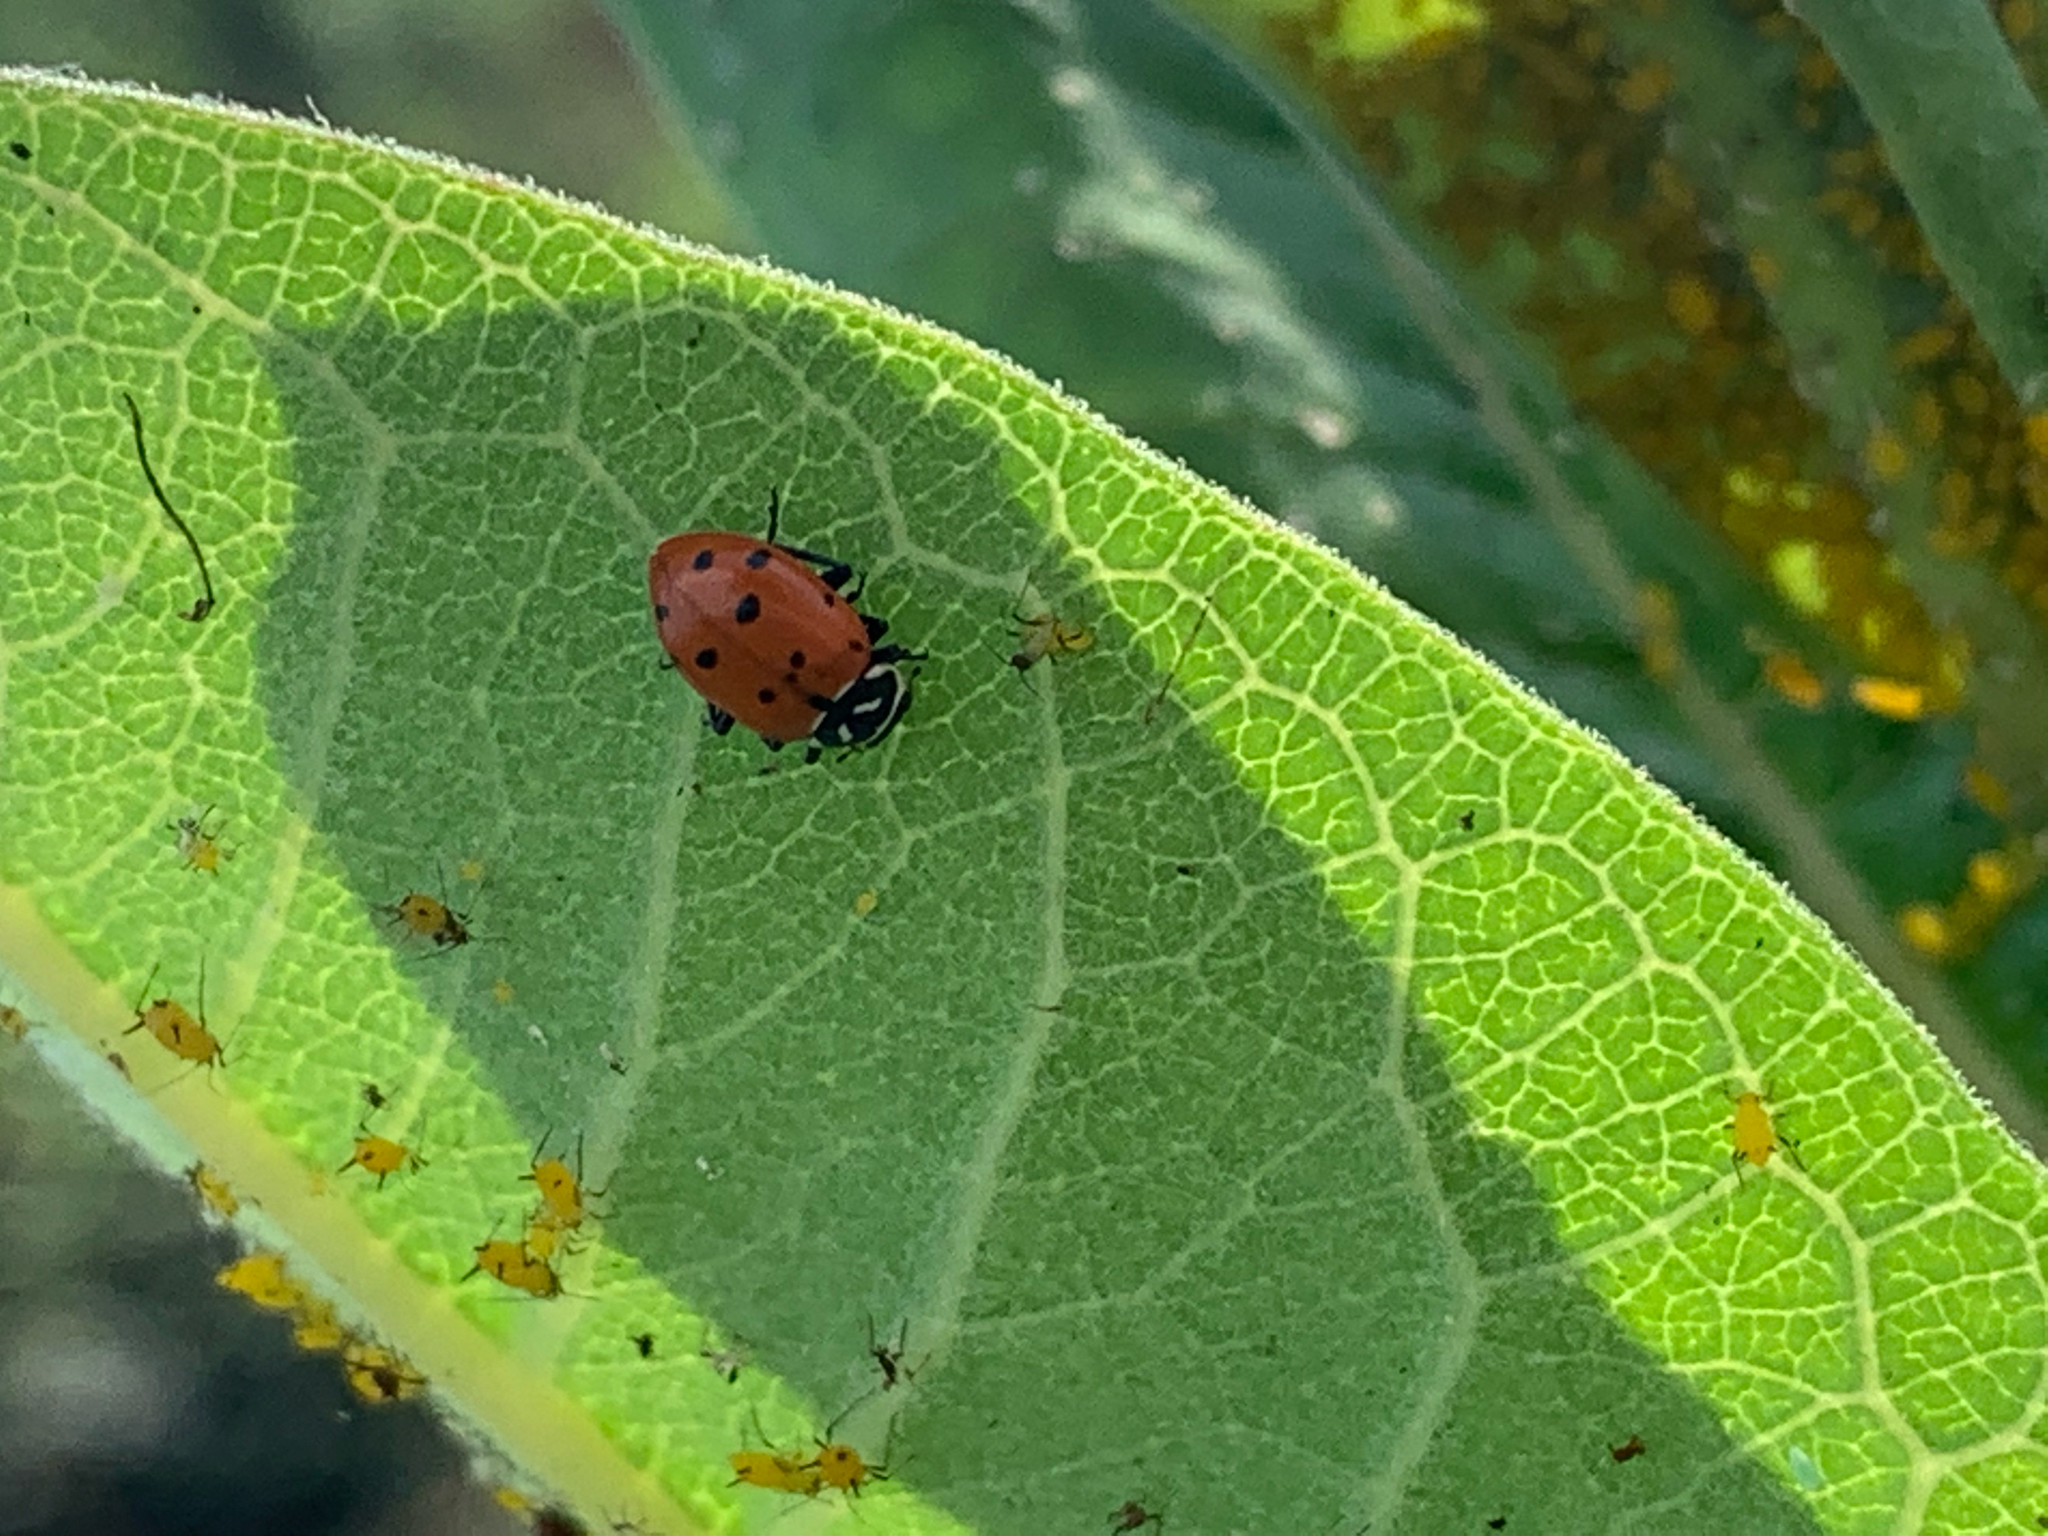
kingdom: Animalia
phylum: Arthropoda
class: Insecta
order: Coleoptera
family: Coccinellidae
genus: Hippodamia
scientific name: Hippodamia convergens
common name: Convergent lady beetle
